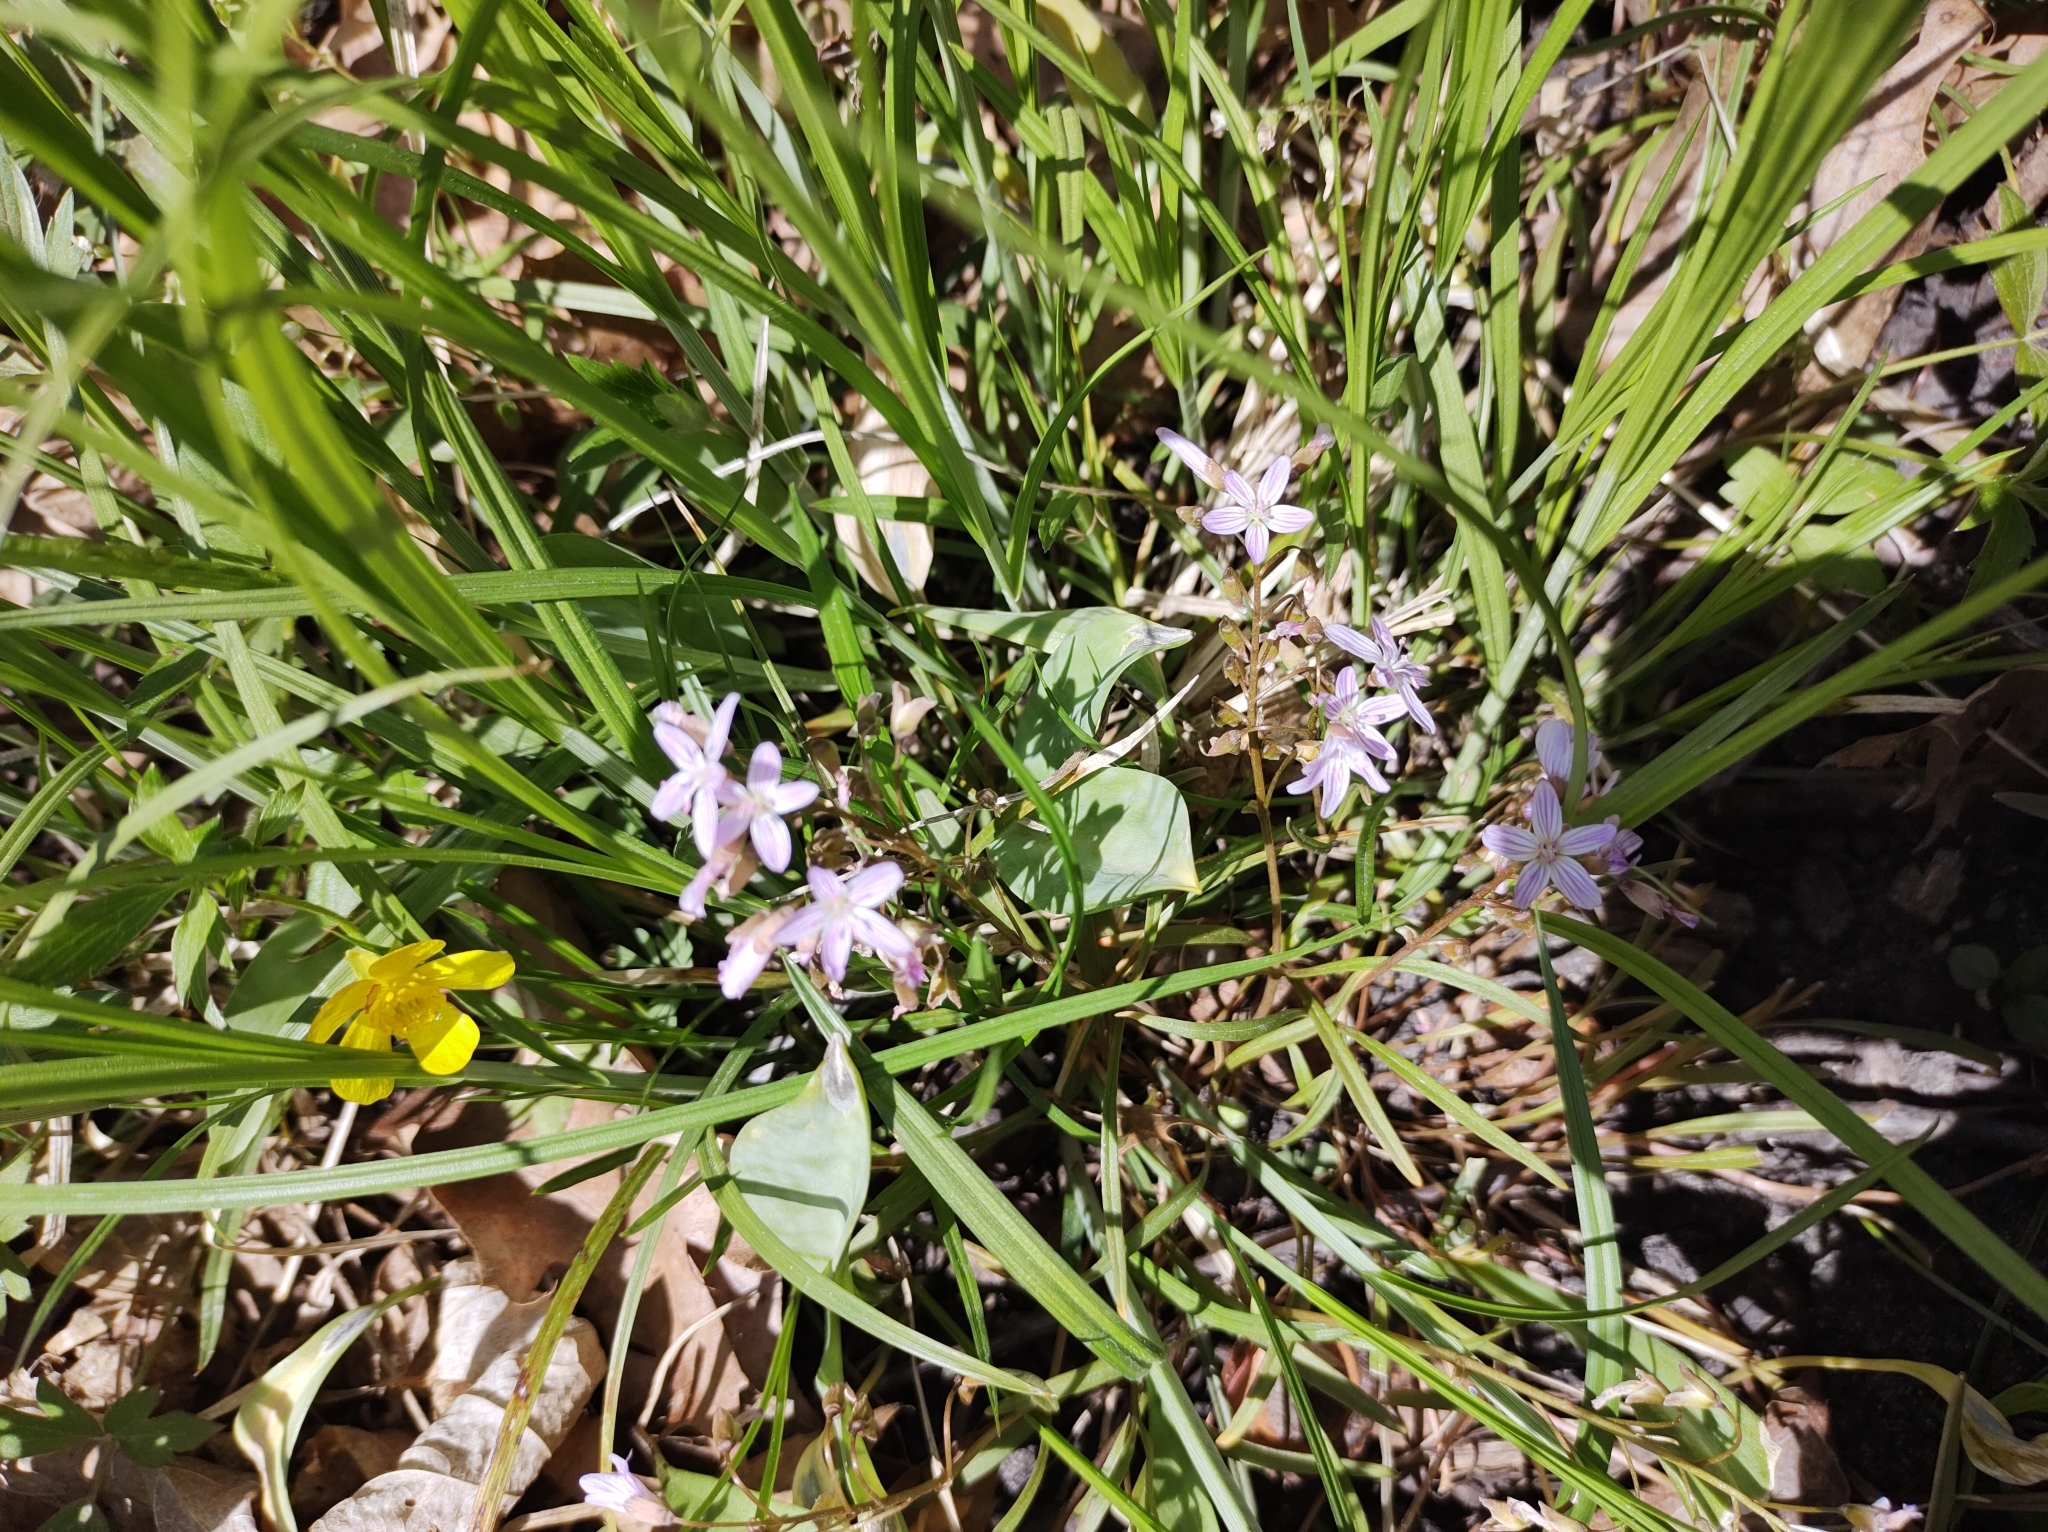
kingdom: Plantae
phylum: Tracheophyta
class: Magnoliopsida
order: Caryophyllales
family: Montiaceae
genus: Claytonia
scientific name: Claytonia virginica
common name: Virginia springbeauty
